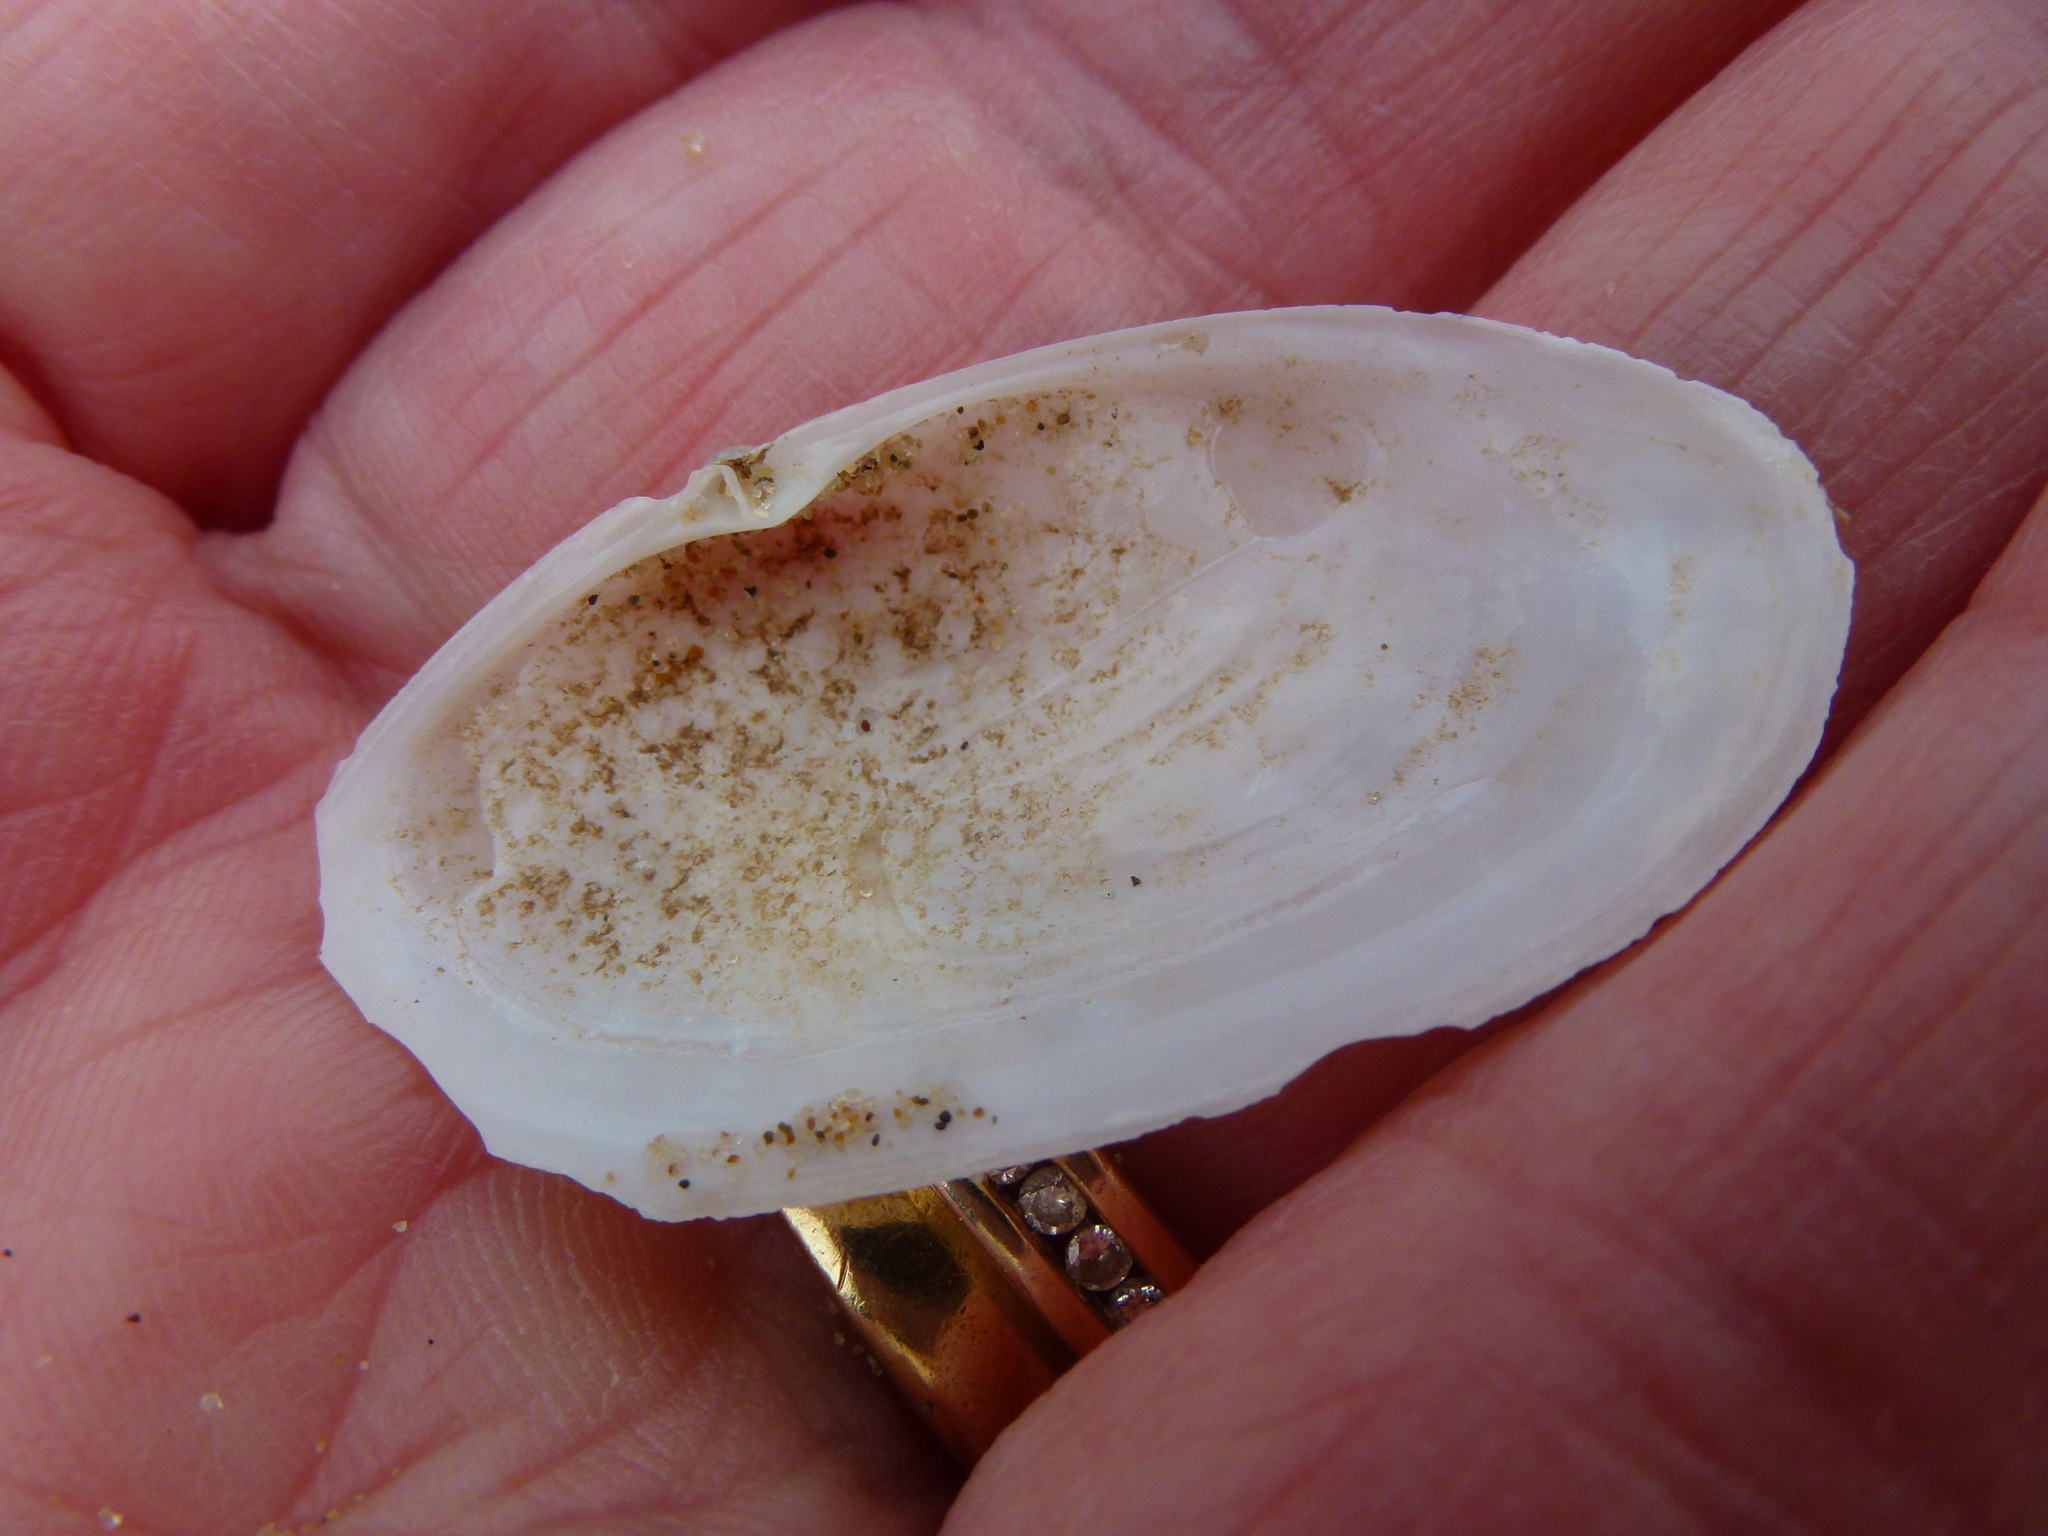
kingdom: Animalia
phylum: Mollusca
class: Bivalvia
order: Venerida
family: Mactridae
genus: Lutraria
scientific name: Lutraria lutraria
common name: Common otter shell
